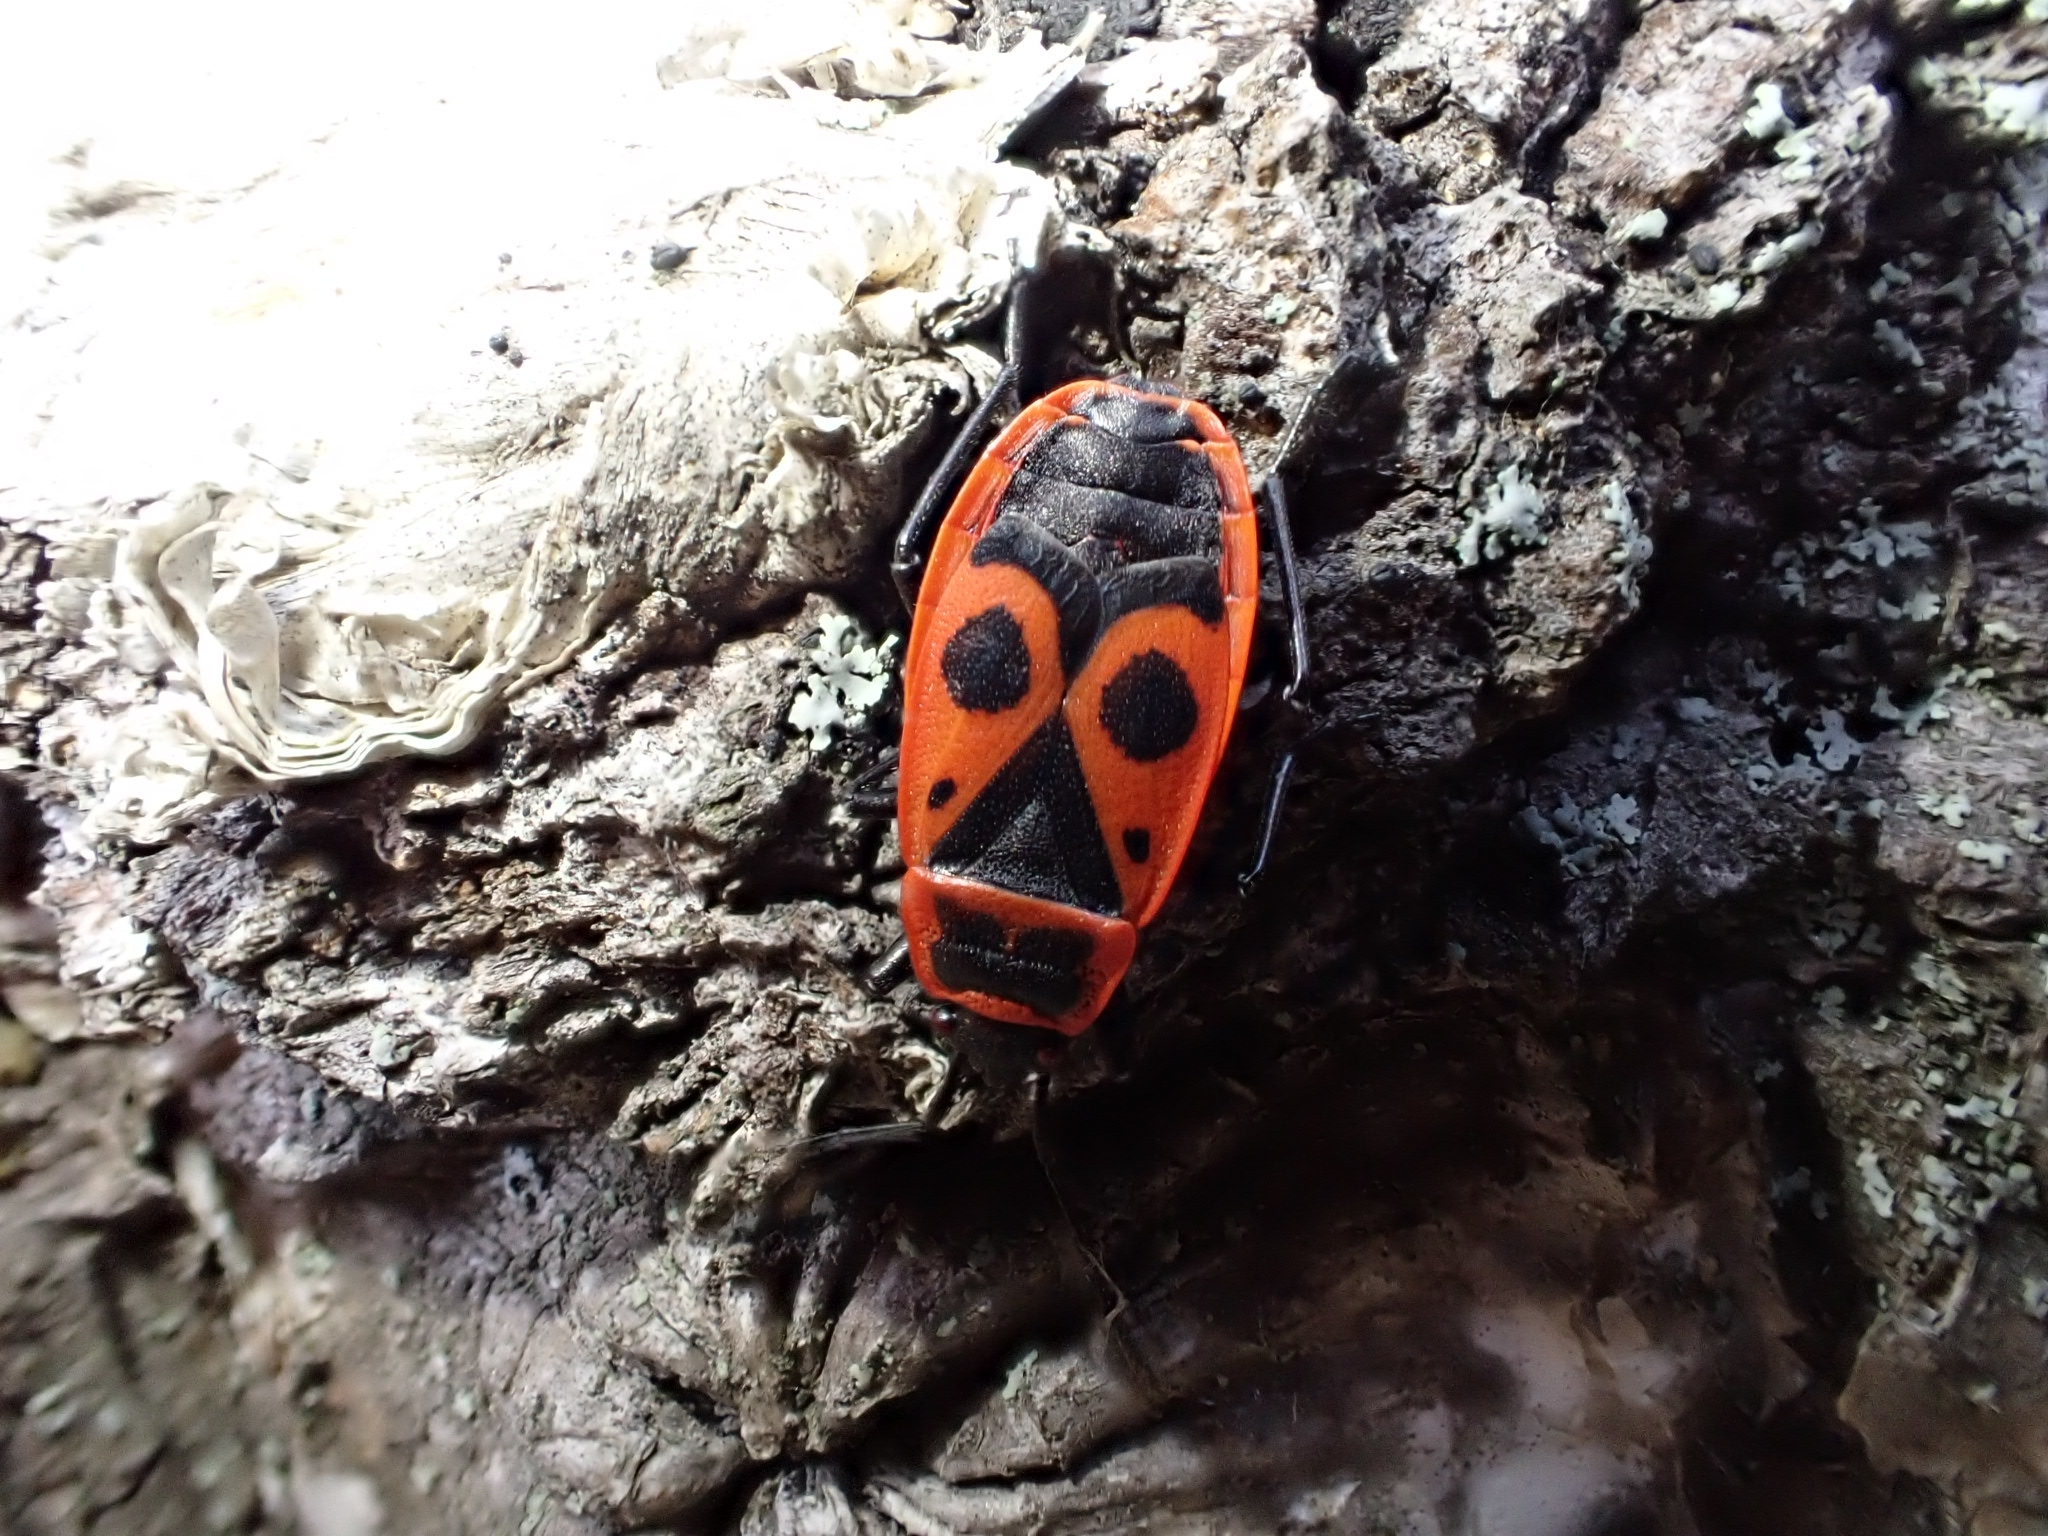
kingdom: Animalia
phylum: Arthropoda
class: Insecta
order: Hemiptera
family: Pyrrhocoridae
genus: Pyrrhocoris
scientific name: Pyrrhocoris apterus
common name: Firebug
